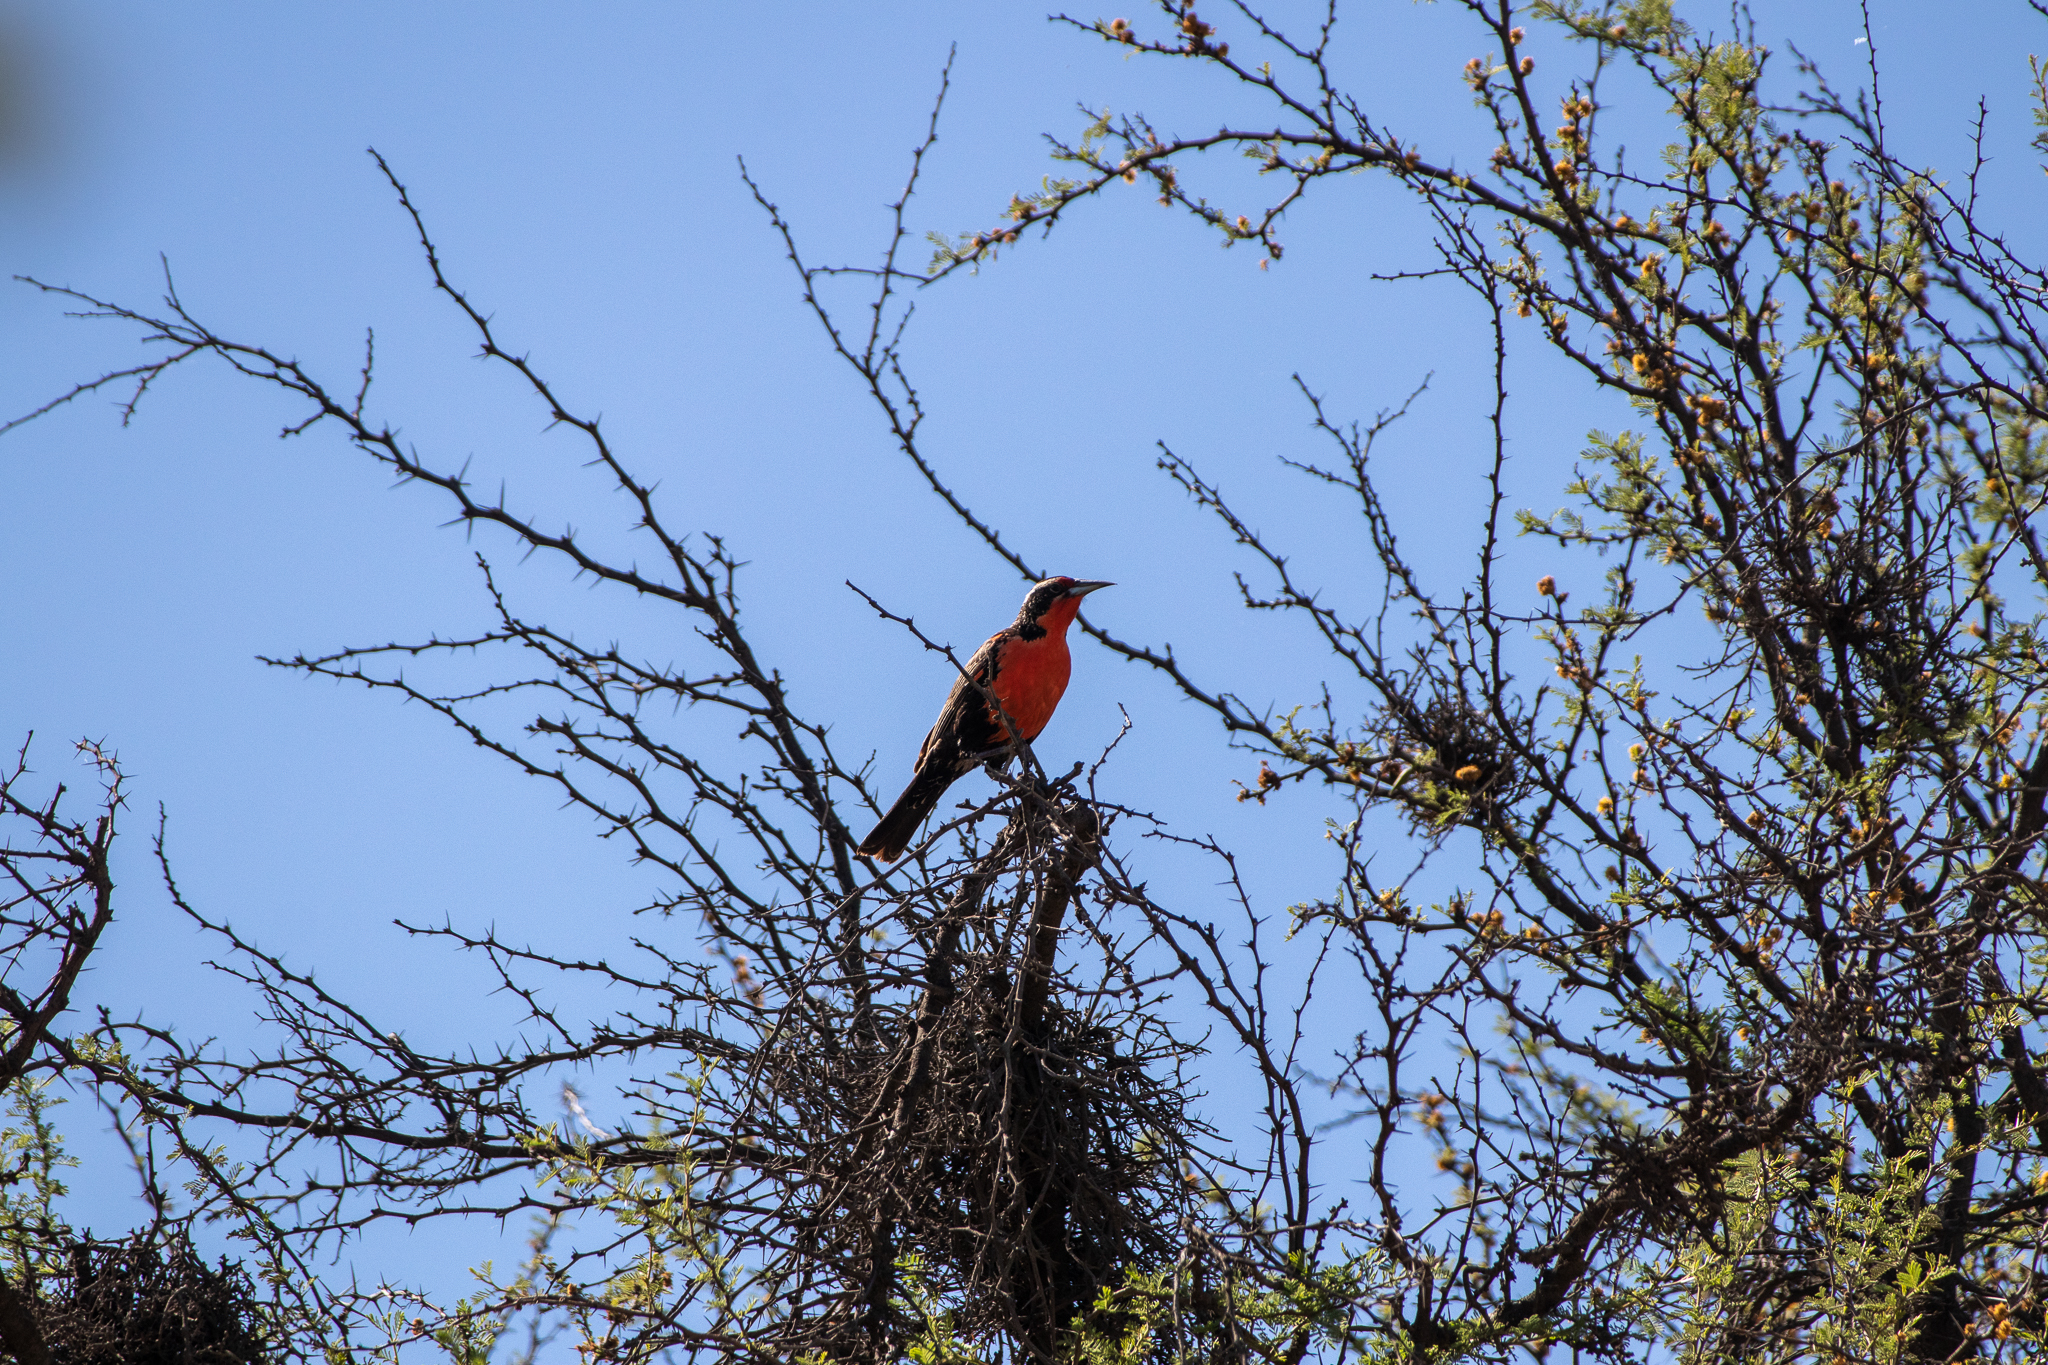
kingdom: Animalia
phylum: Chordata
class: Aves
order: Passeriformes
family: Icteridae
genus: Sturnella
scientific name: Sturnella loyca
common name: Long-tailed meadowlark
